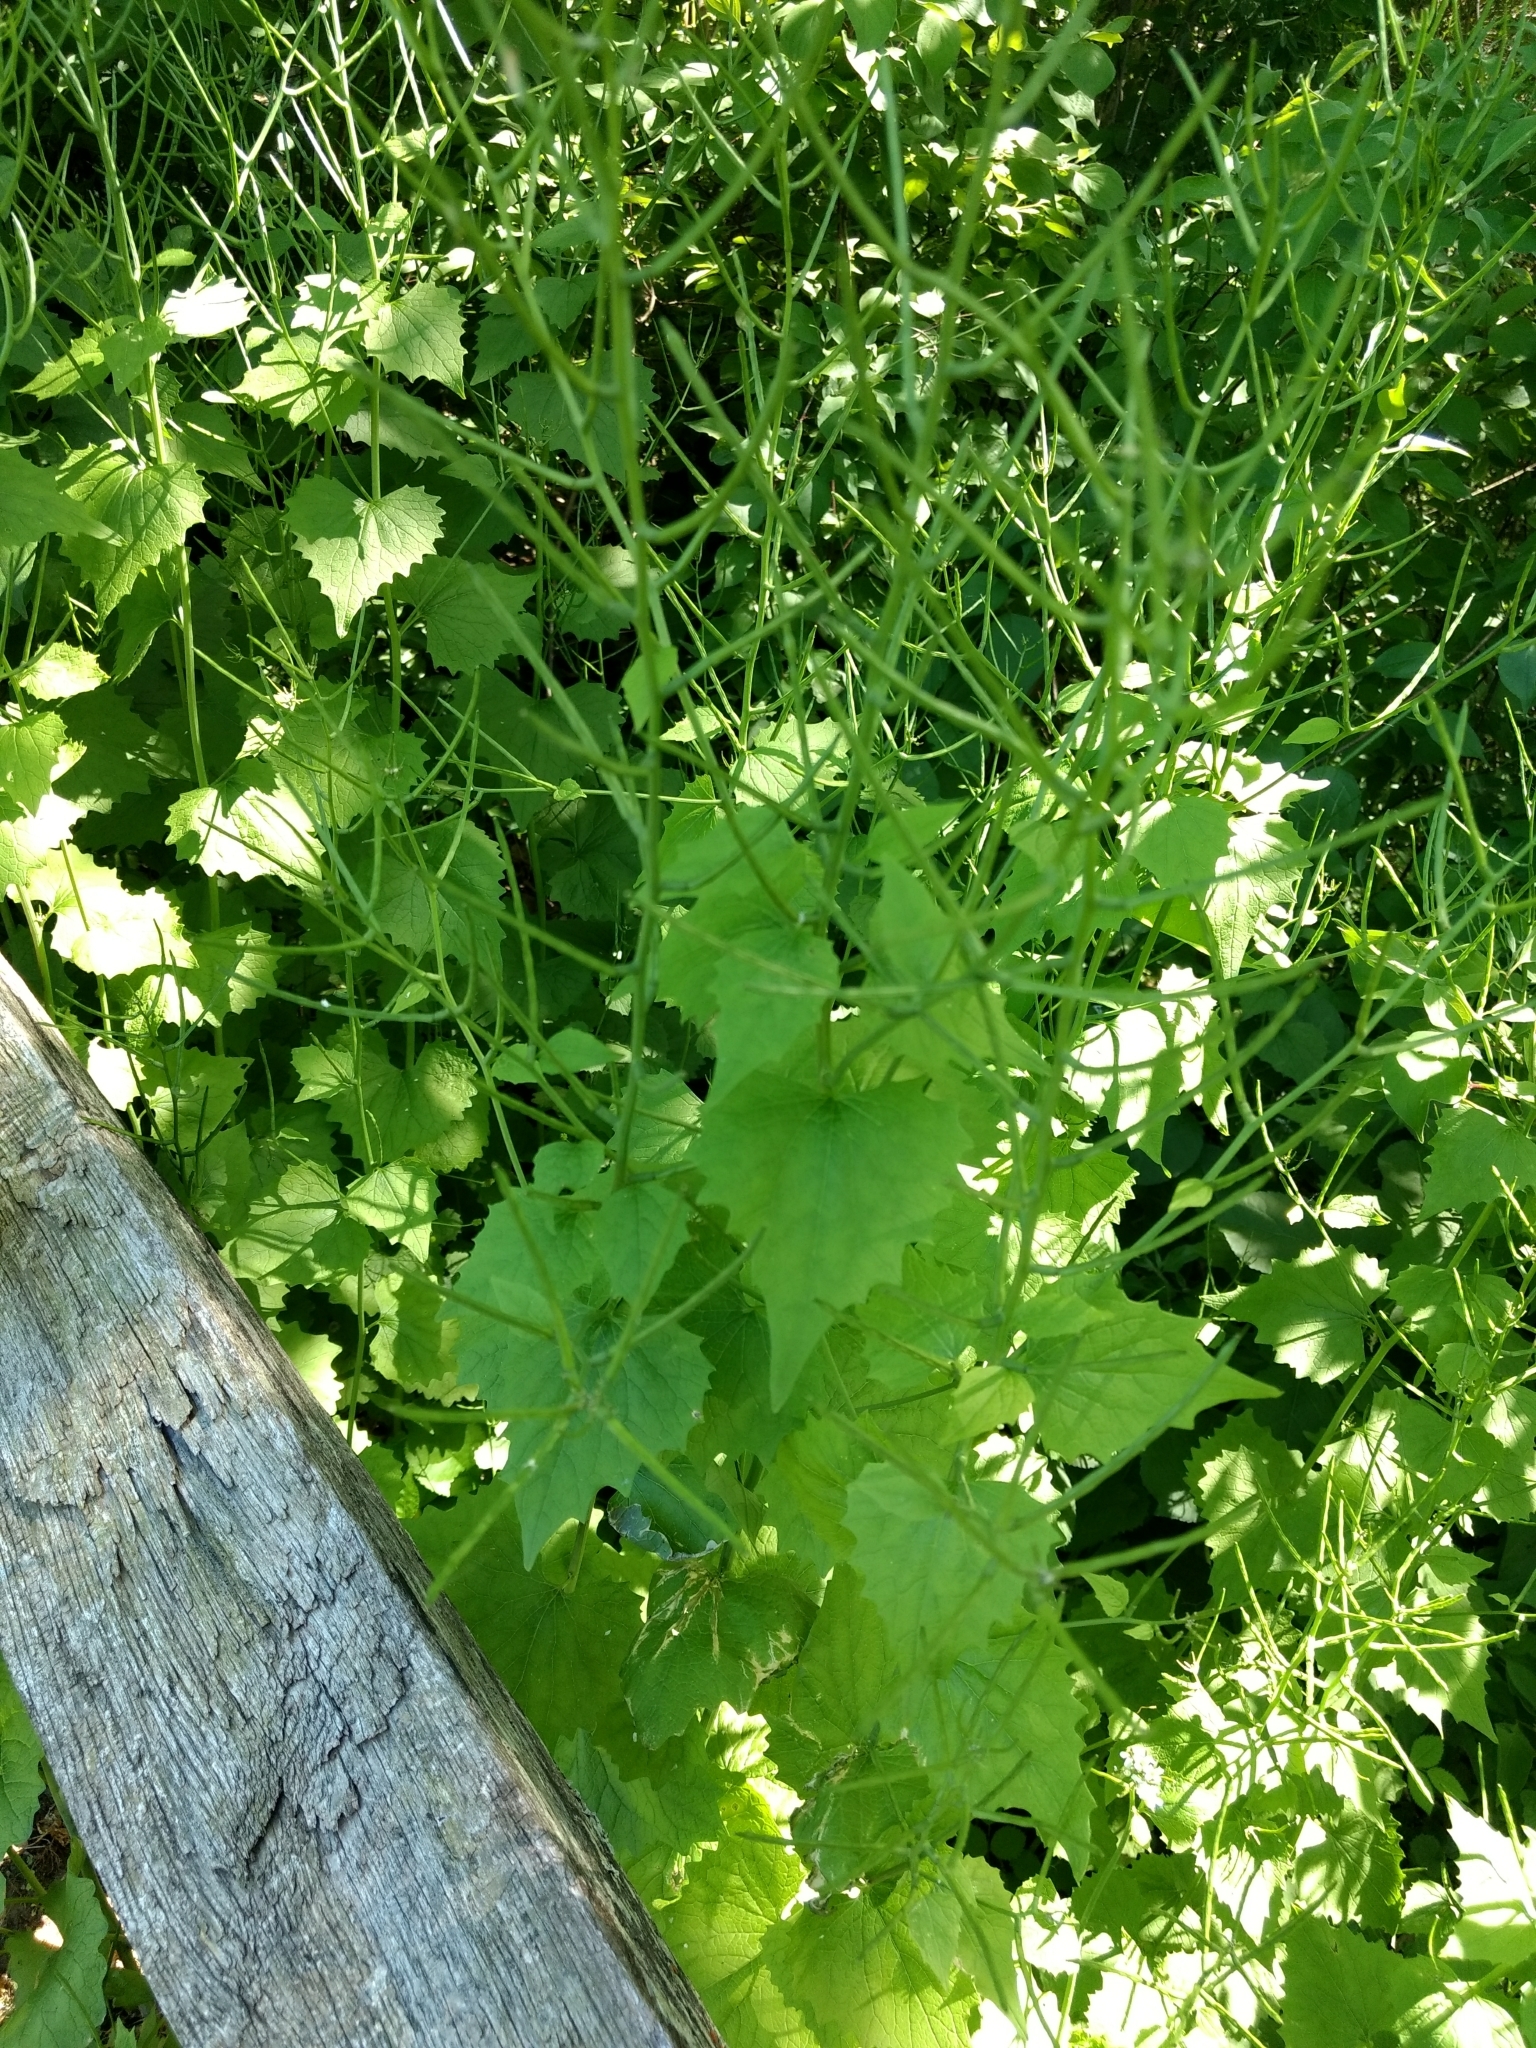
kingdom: Plantae
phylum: Tracheophyta
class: Magnoliopsida
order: Brassicales
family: Brassicaceae
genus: Alliaria
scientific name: Alliaria petiolata
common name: Garlic mustard
